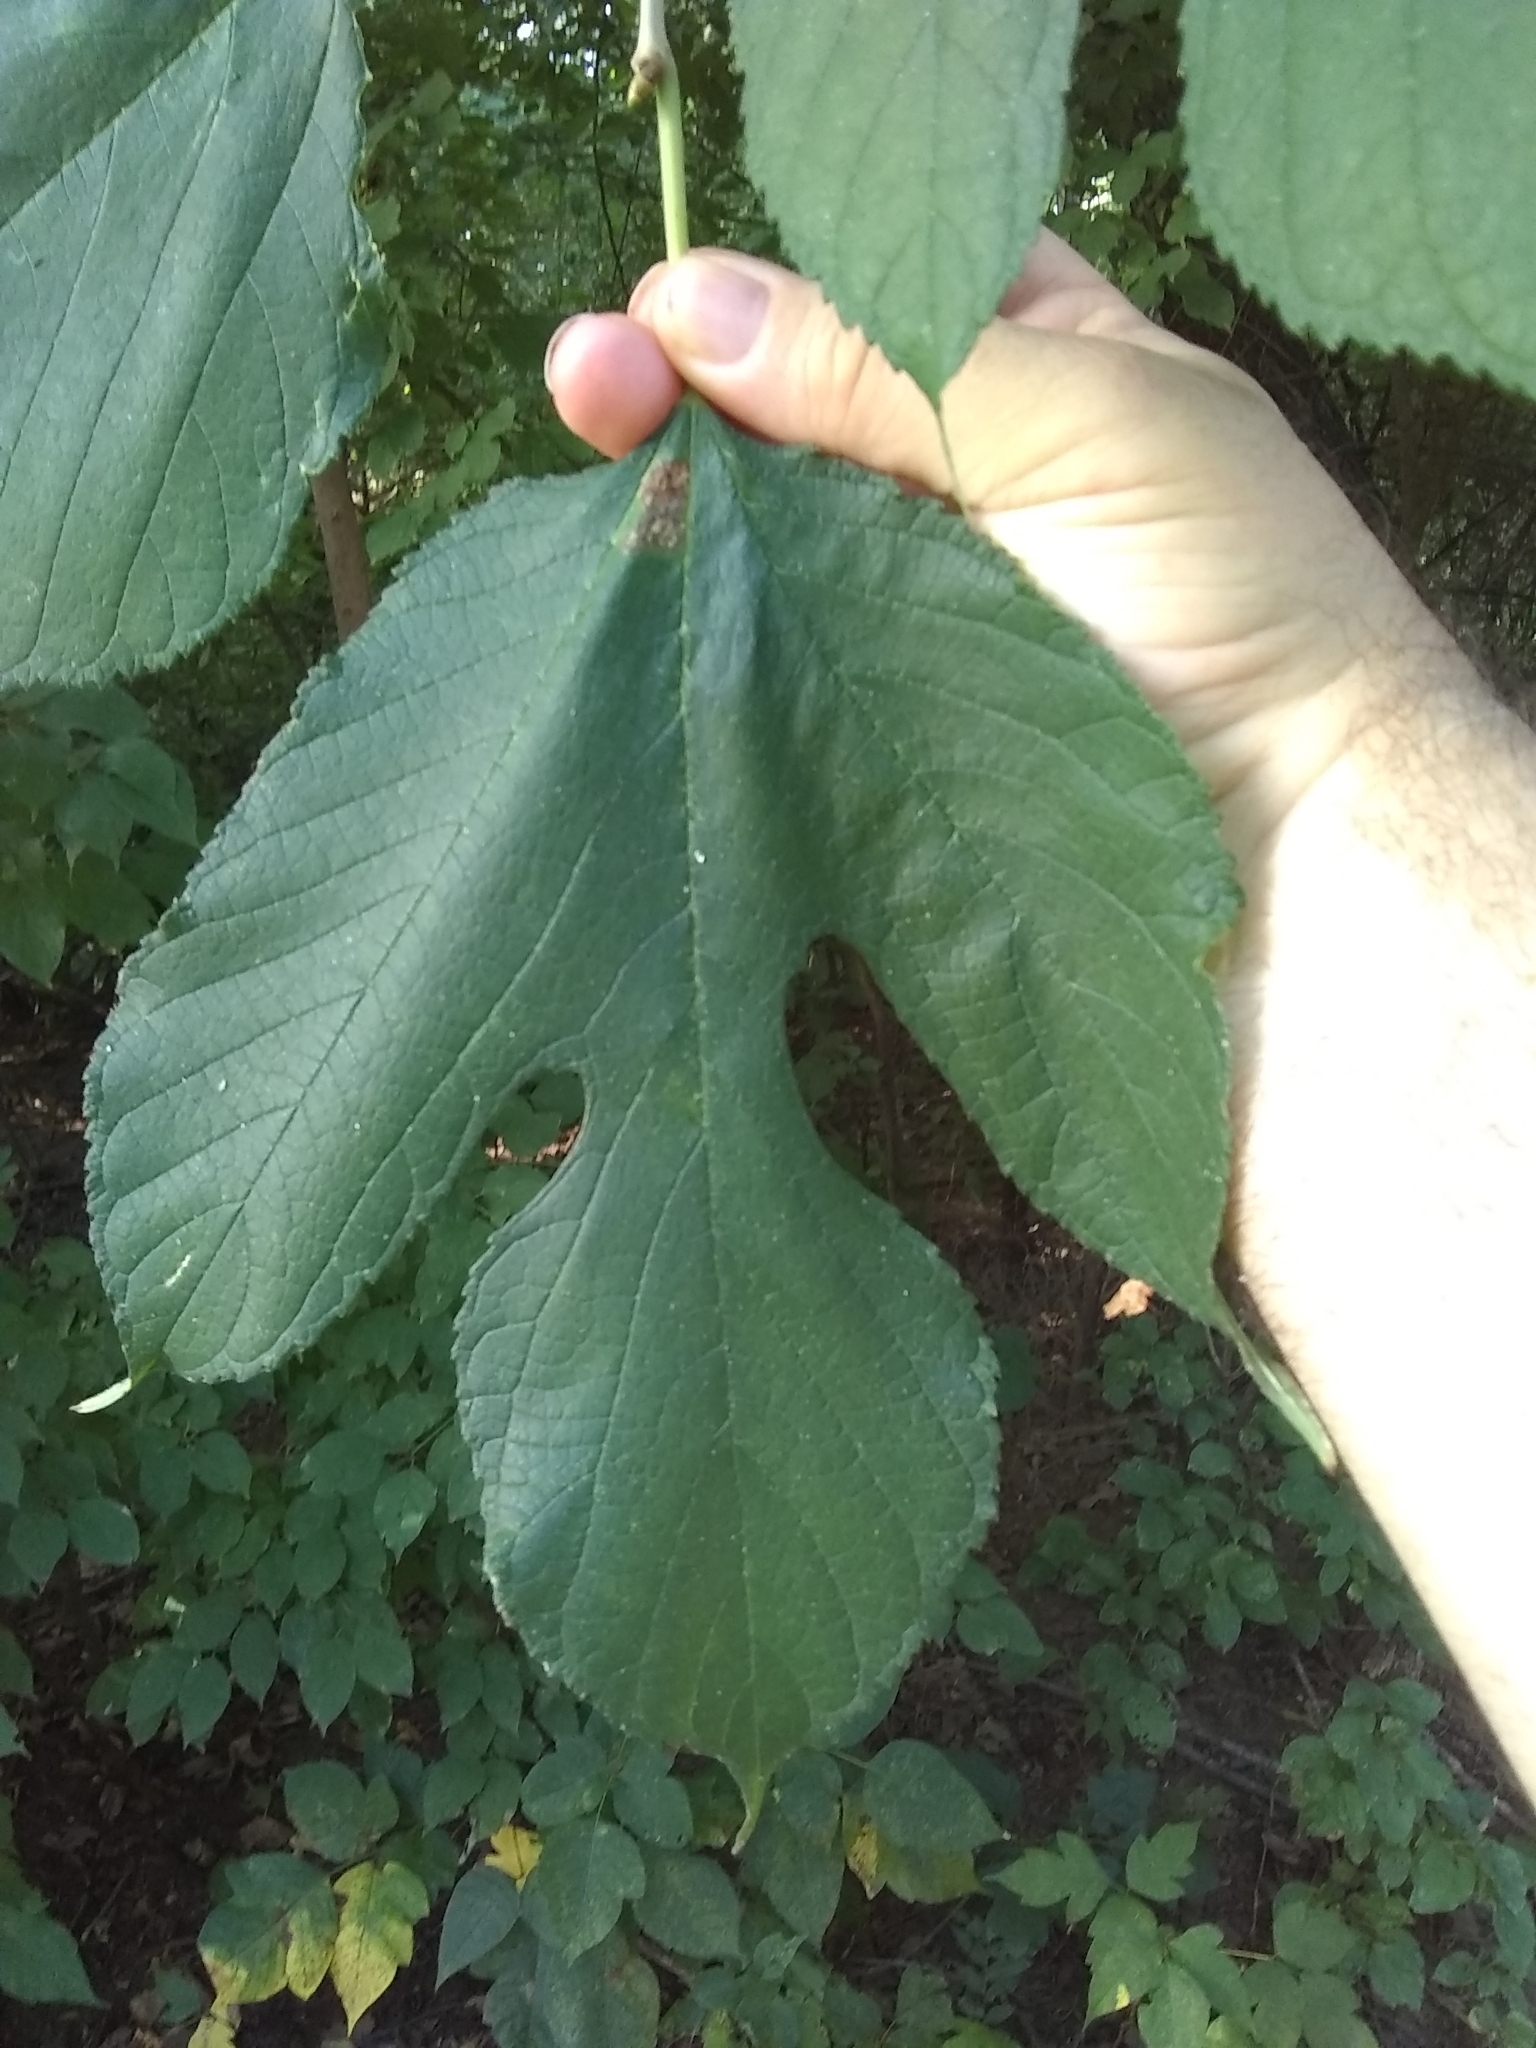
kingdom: Plantae
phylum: Tracheophyta
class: Magnoliopsida
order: Rosales
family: Moraceae
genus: Morus
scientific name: Morus rubra
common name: Red mulberry
